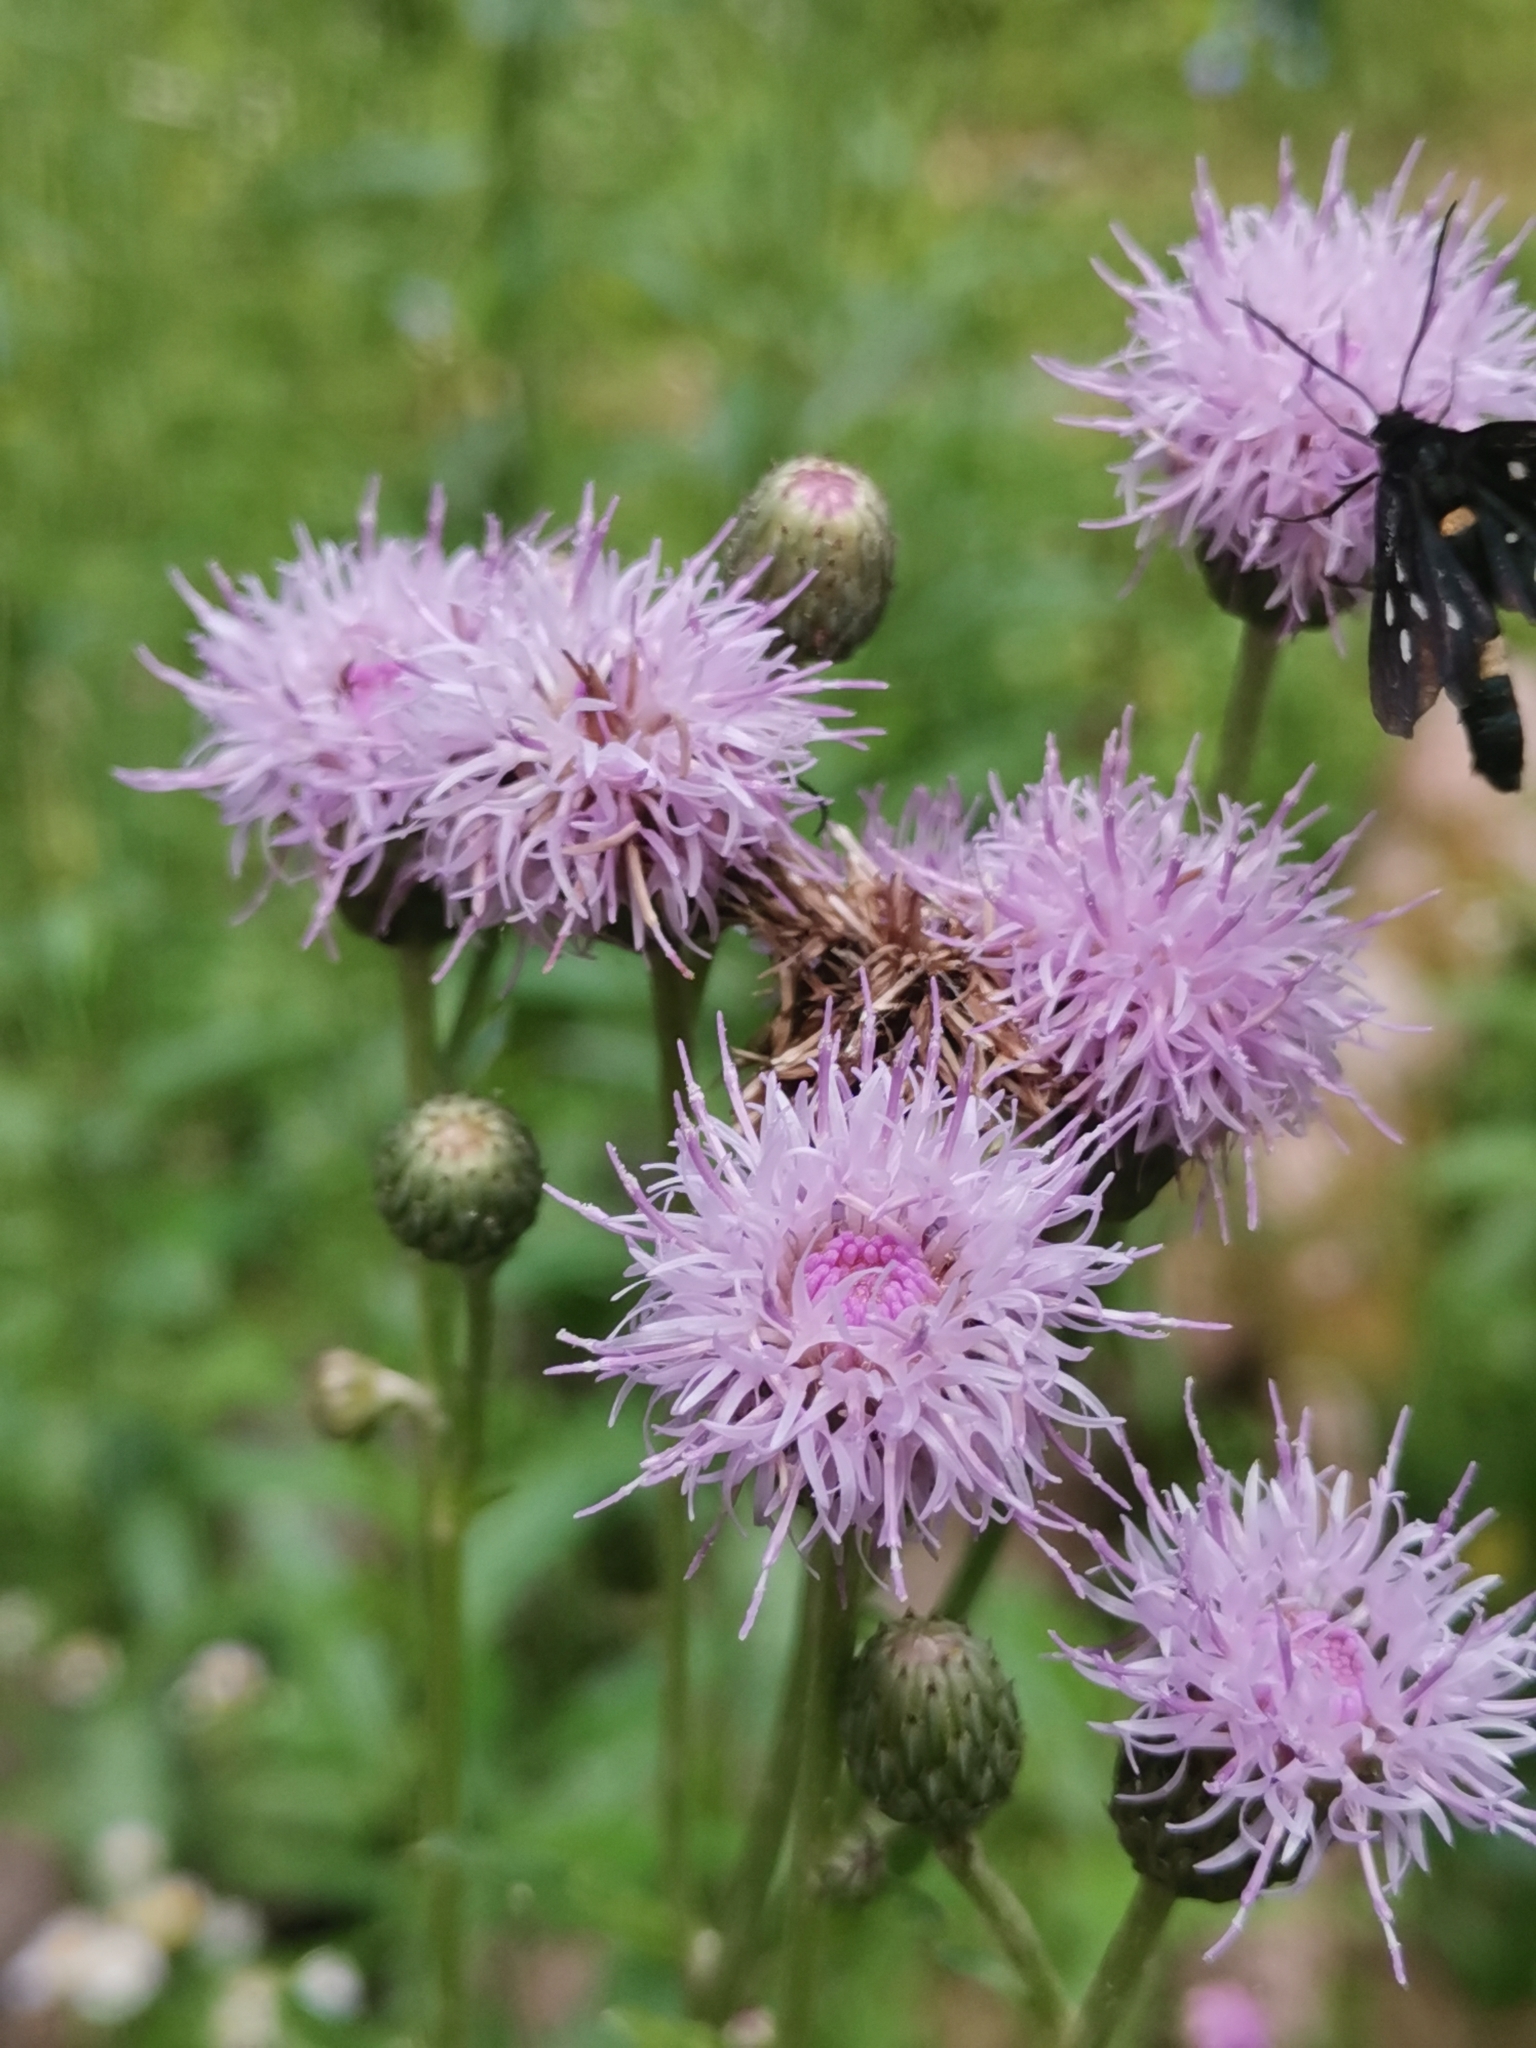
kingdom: Plantae
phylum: Tracheophyta
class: Magnoliopsida
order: Asterales
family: Asteraceae
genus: Cirsium
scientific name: Cirsium arvense
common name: Creeping thistle
